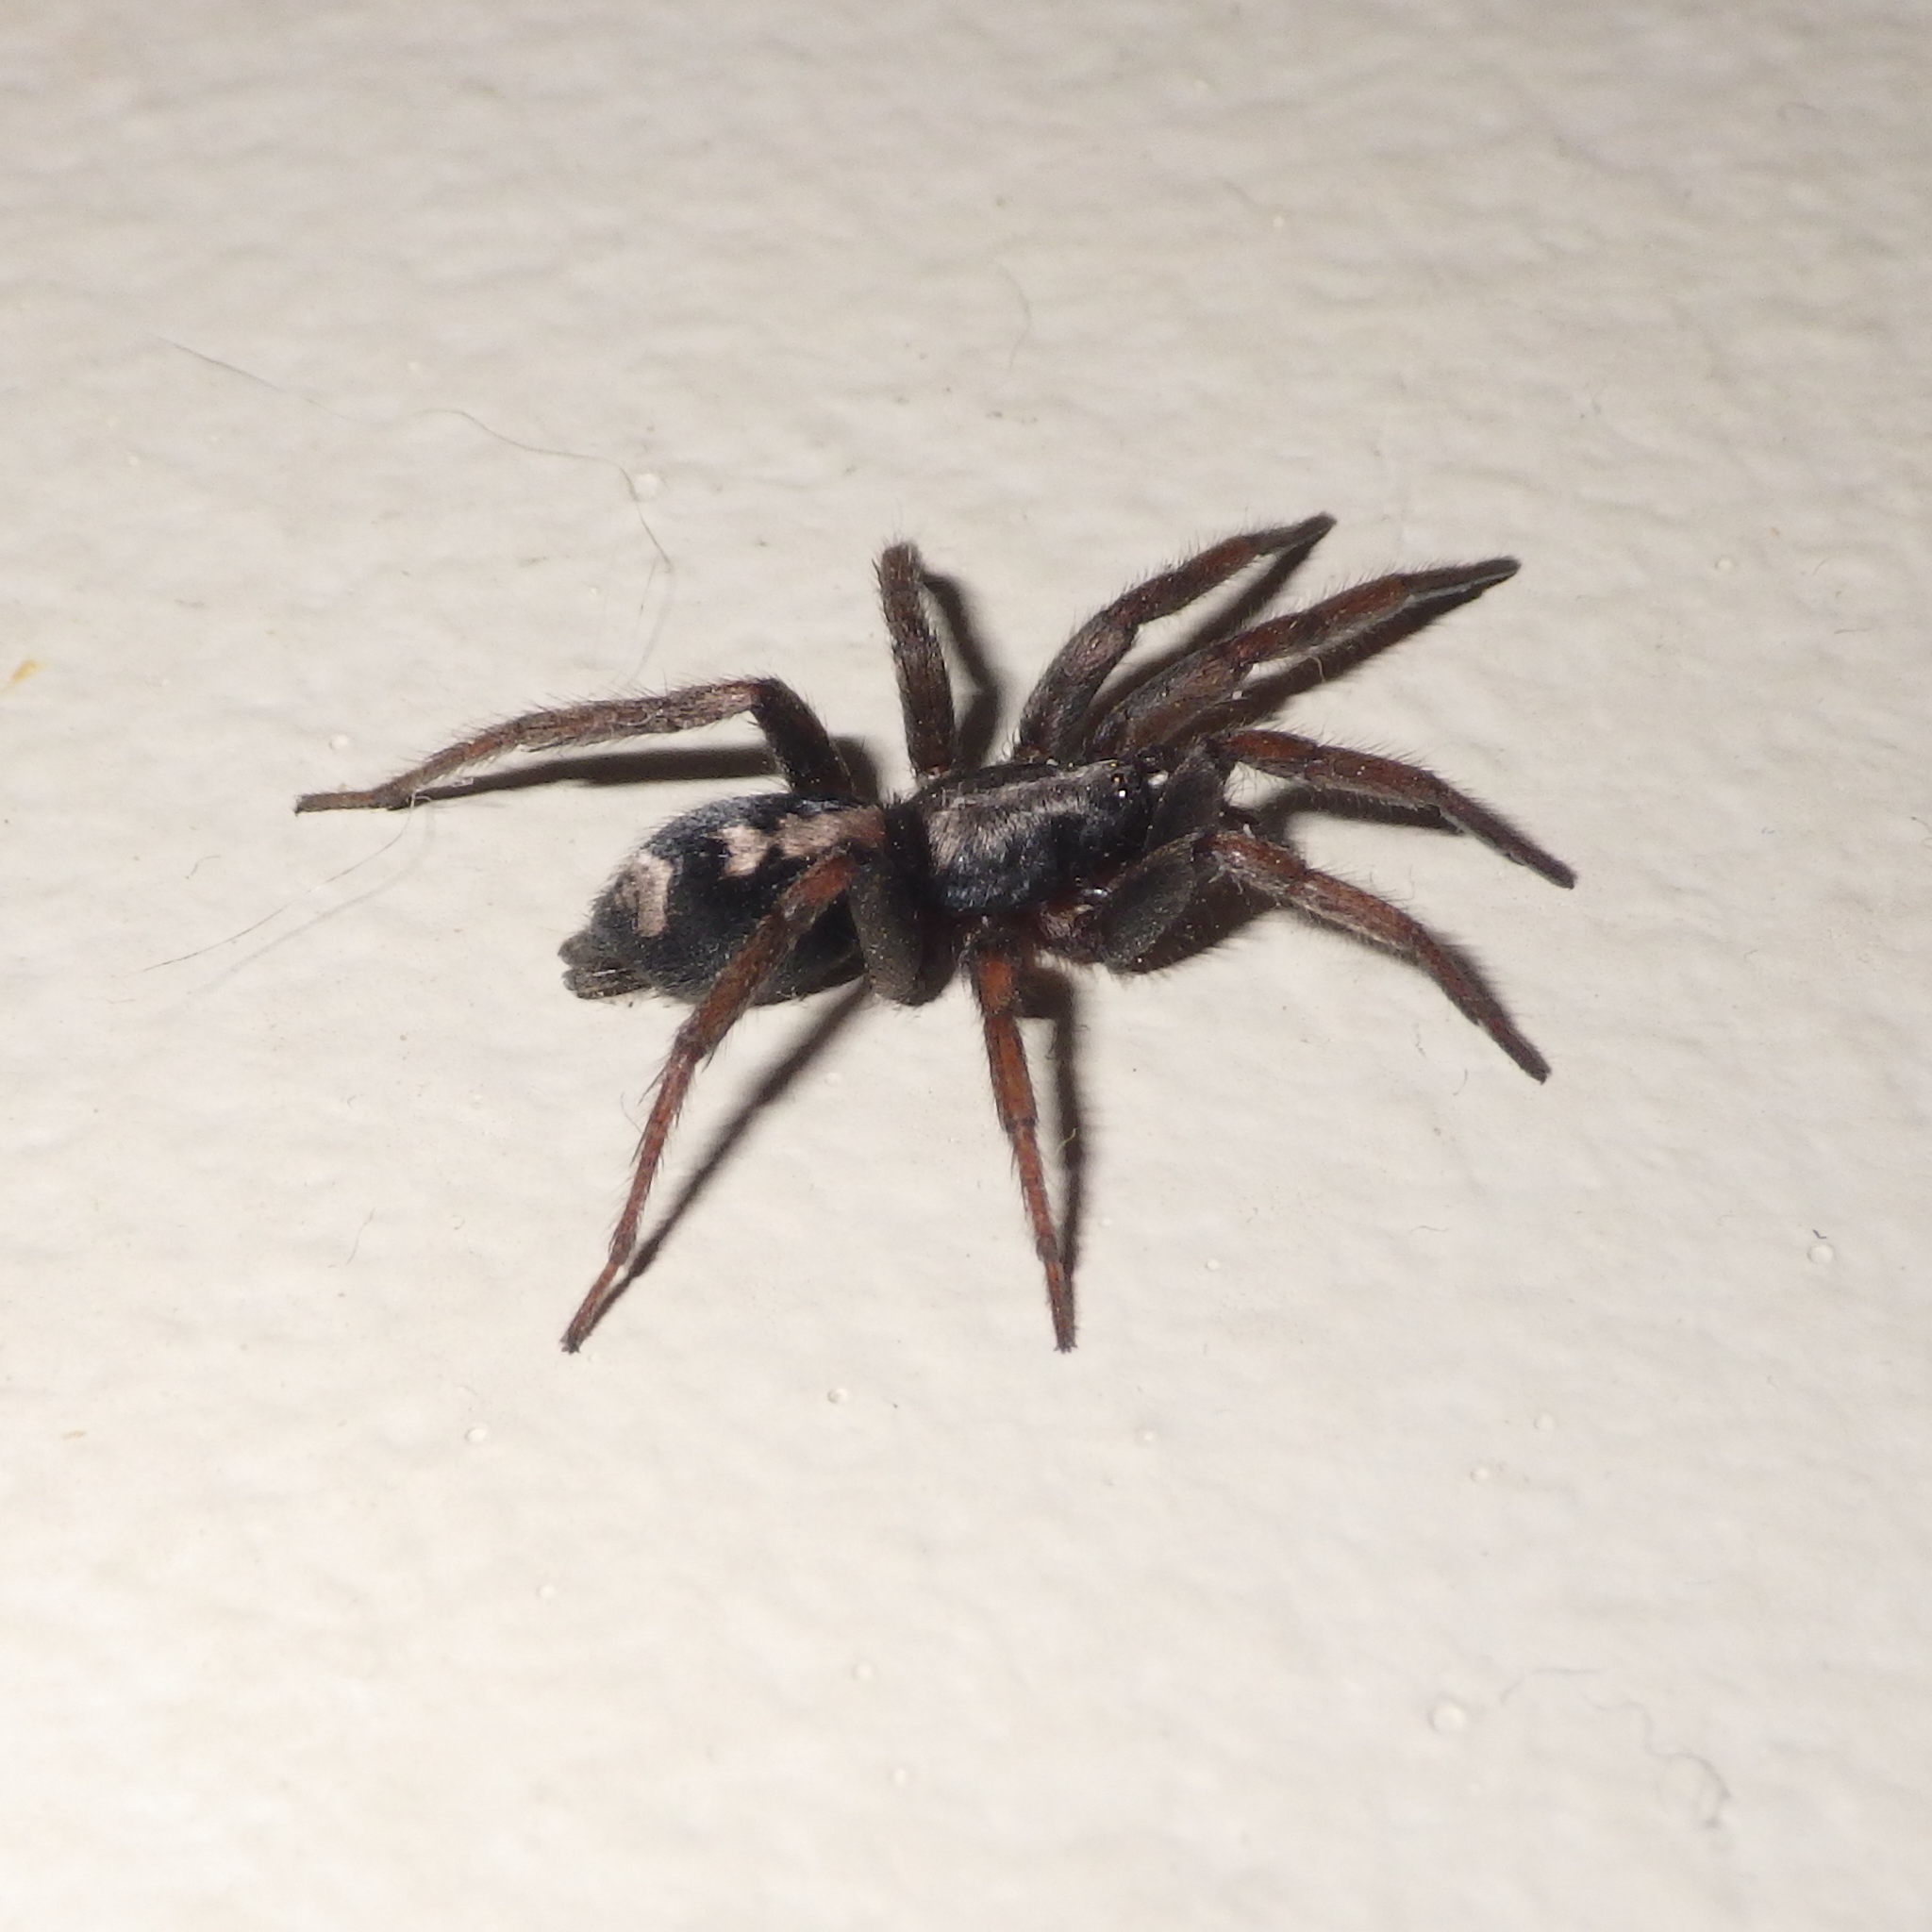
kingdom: Animalia
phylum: Arthropoda
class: Arachnida
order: Araneae
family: Gnaphosidae
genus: Herpyllus
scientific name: Herpyllus ecclesiasticus
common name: Eastern parson spider
